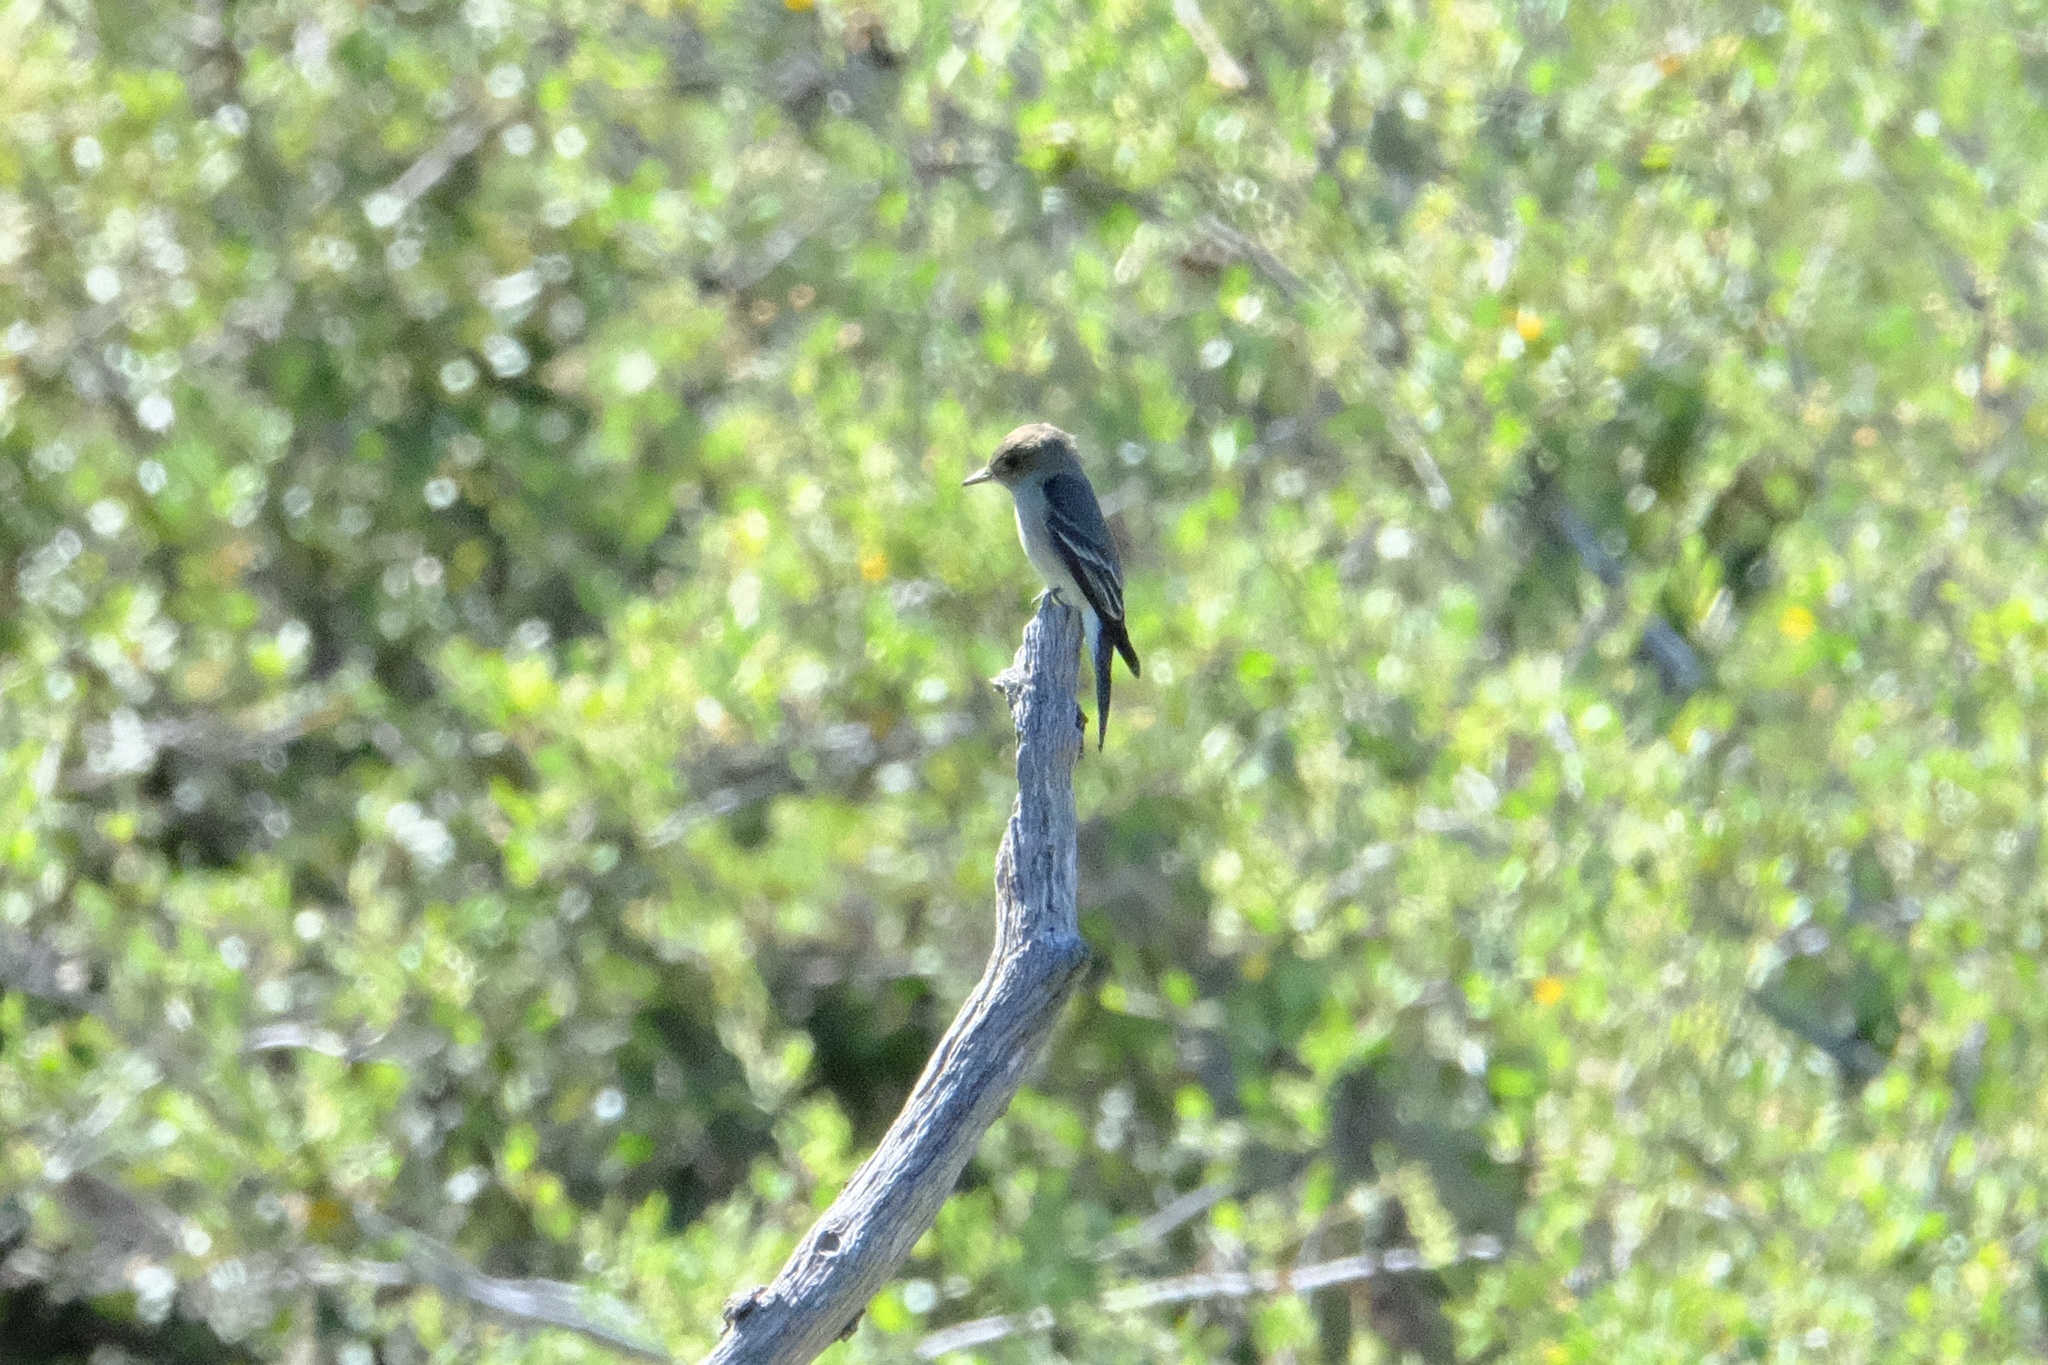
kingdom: Animalia
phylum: Chordata
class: Aves
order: Passeriformes
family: Tyrannidae
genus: Contopus
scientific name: Contopus sordidulus
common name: Western wood-pewee
